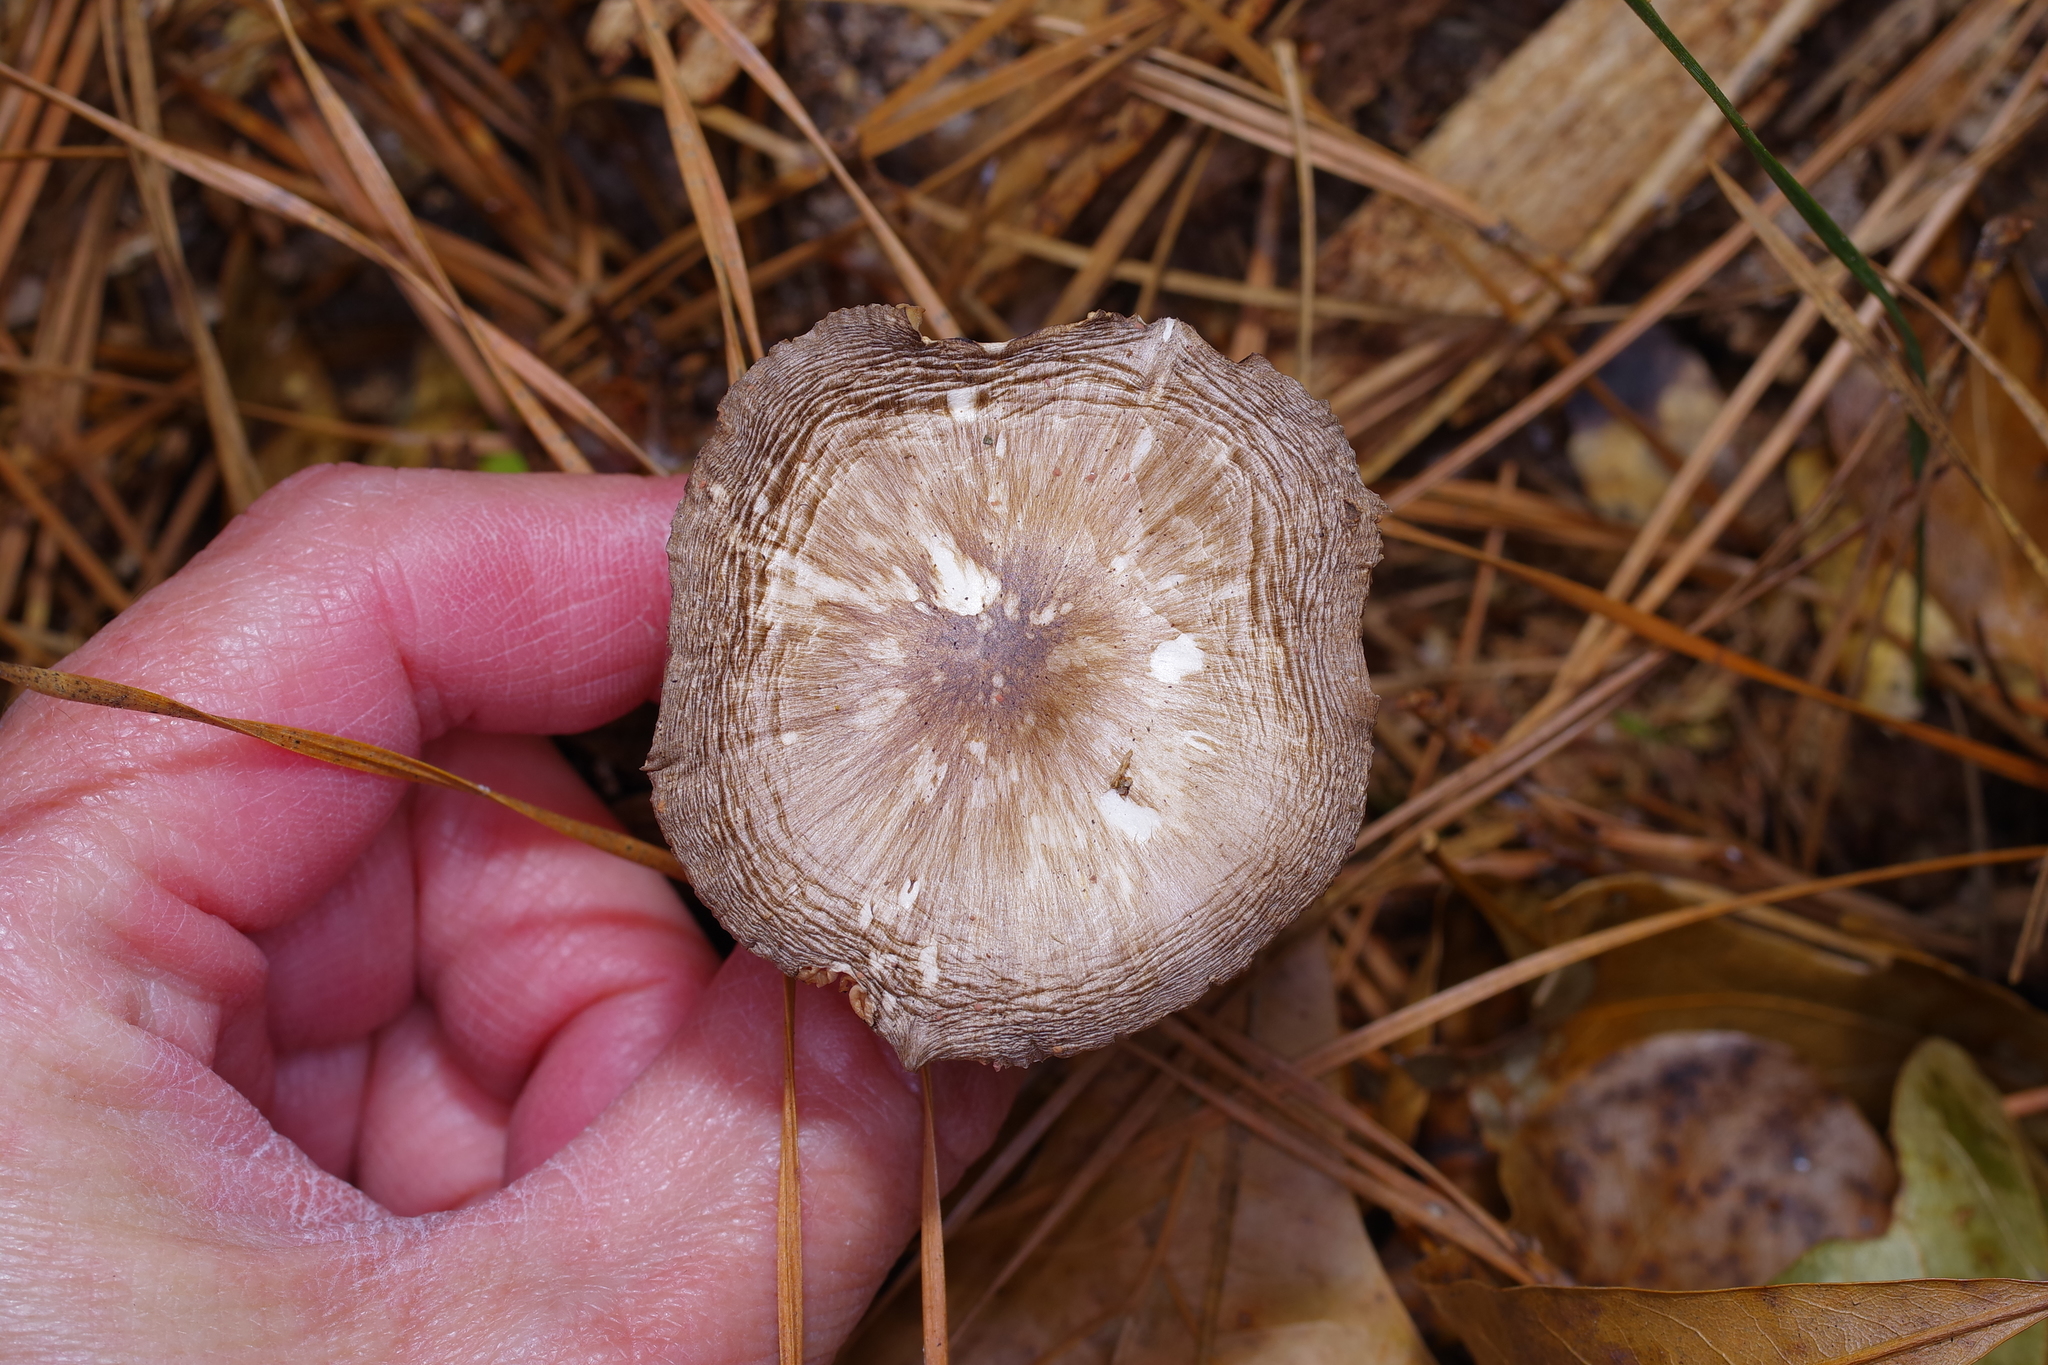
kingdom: Fungi
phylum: Basidiomycota
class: Agaricomycetes
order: Agaricales
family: Pluteaceae
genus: Pluteus
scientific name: Pluteus cervinus
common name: Deer shield
